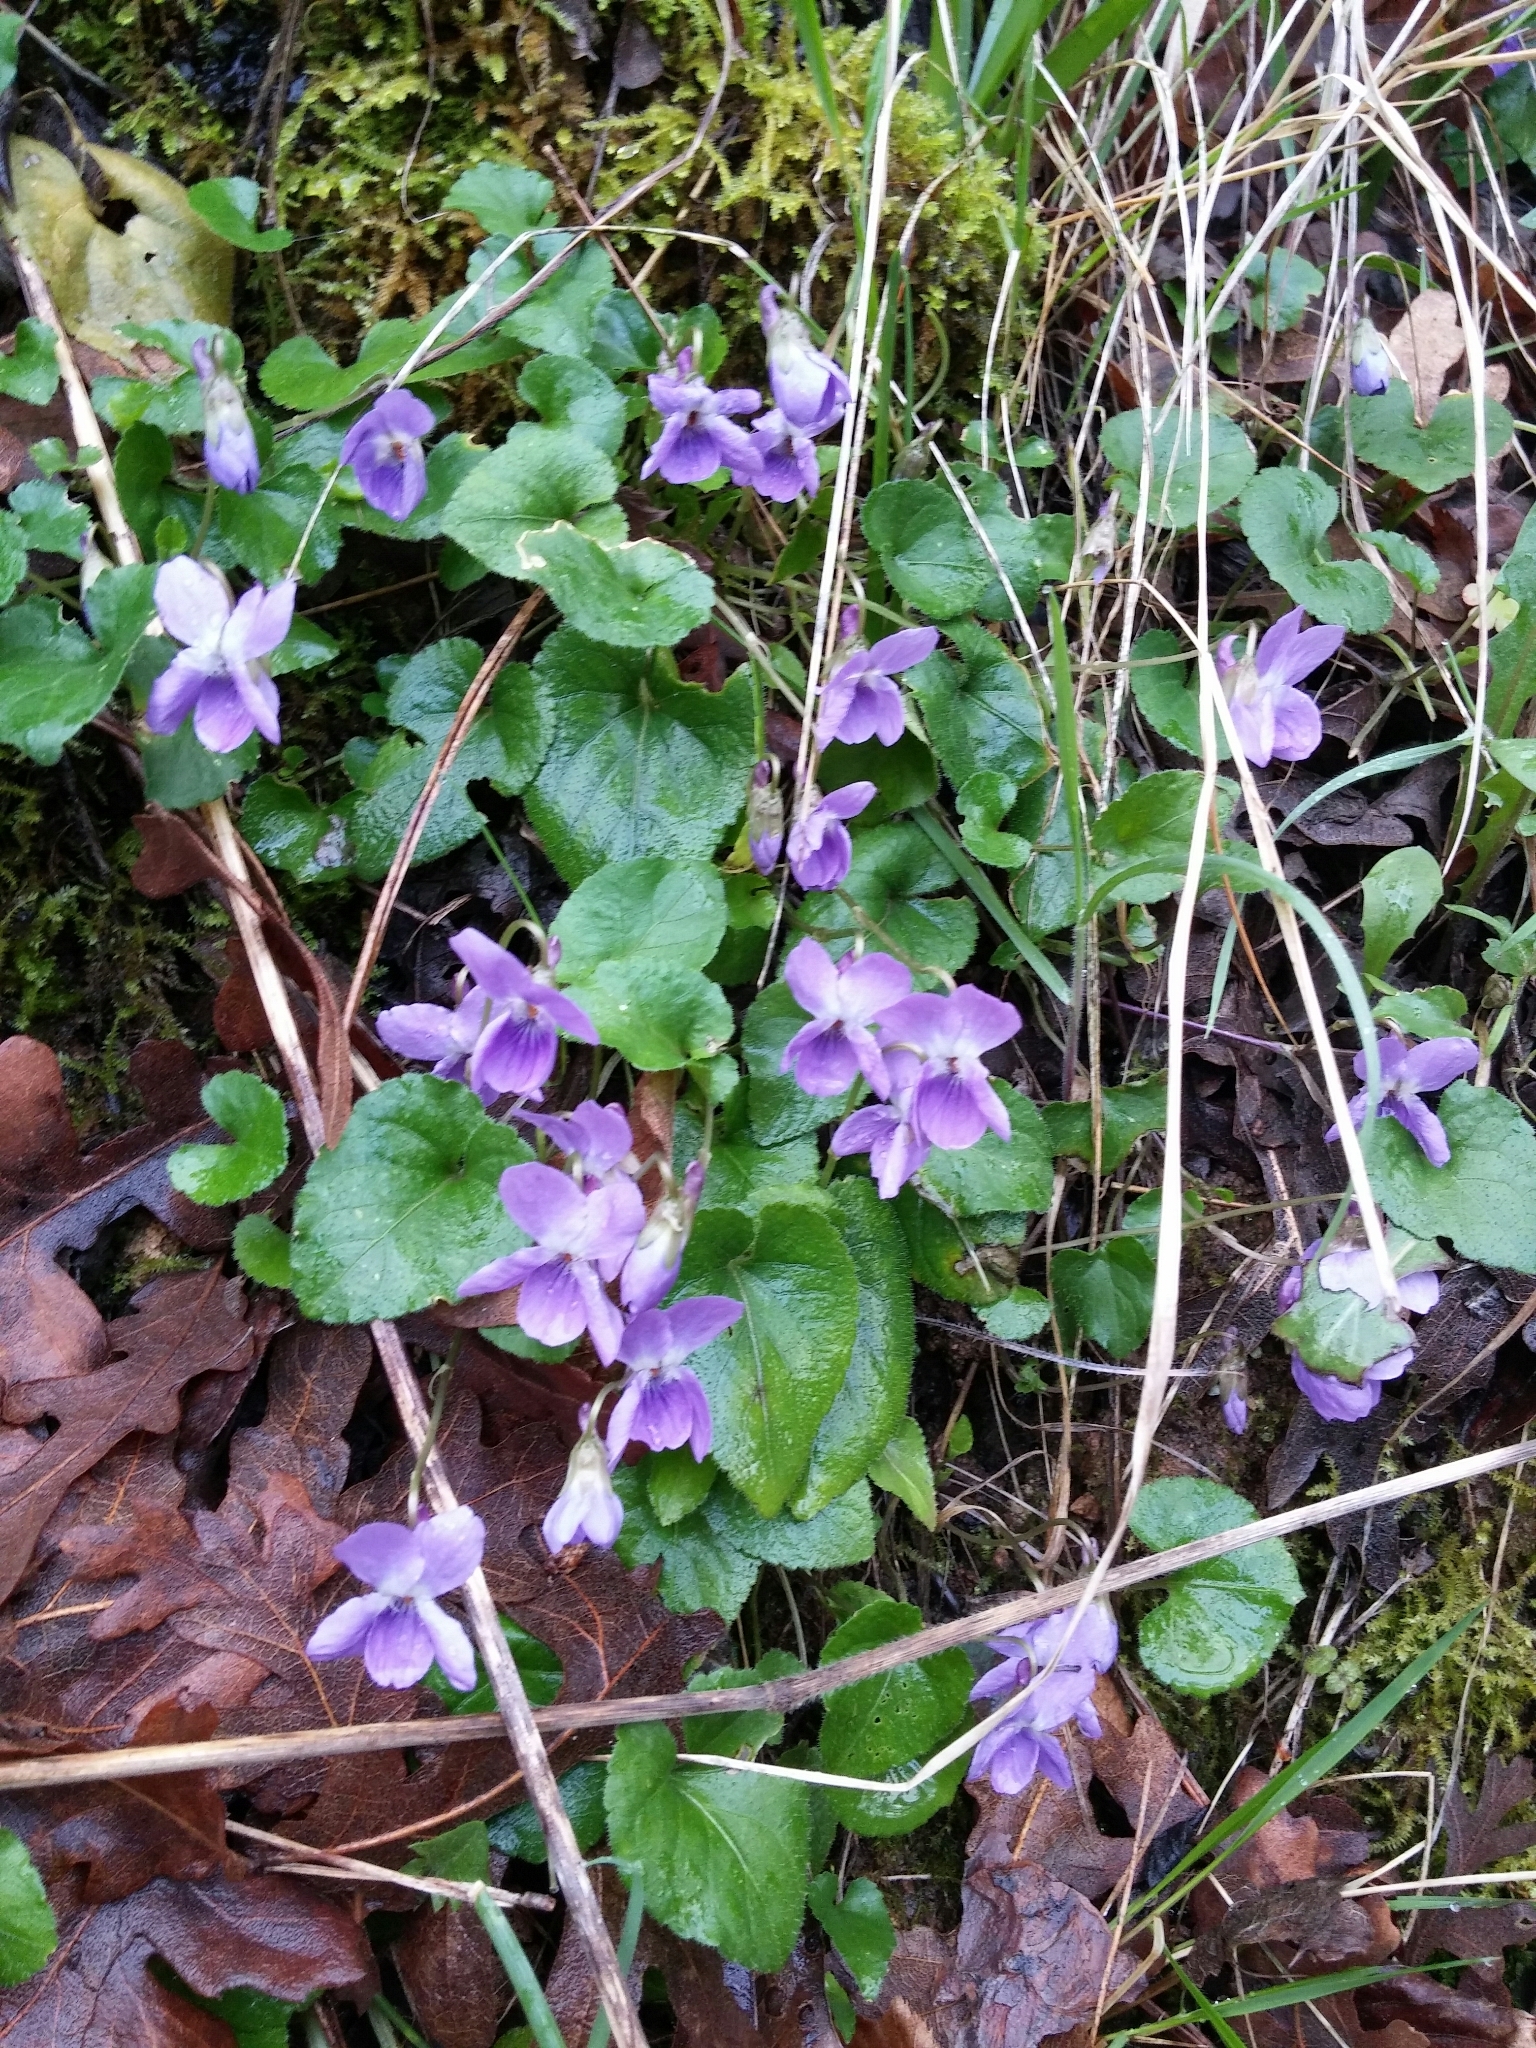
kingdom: Plantae
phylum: Tracheophyta
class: Magnoliopsida
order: Malpighiales
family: Violaceae
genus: Viola
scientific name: Viola odorata
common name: Sweet violet
